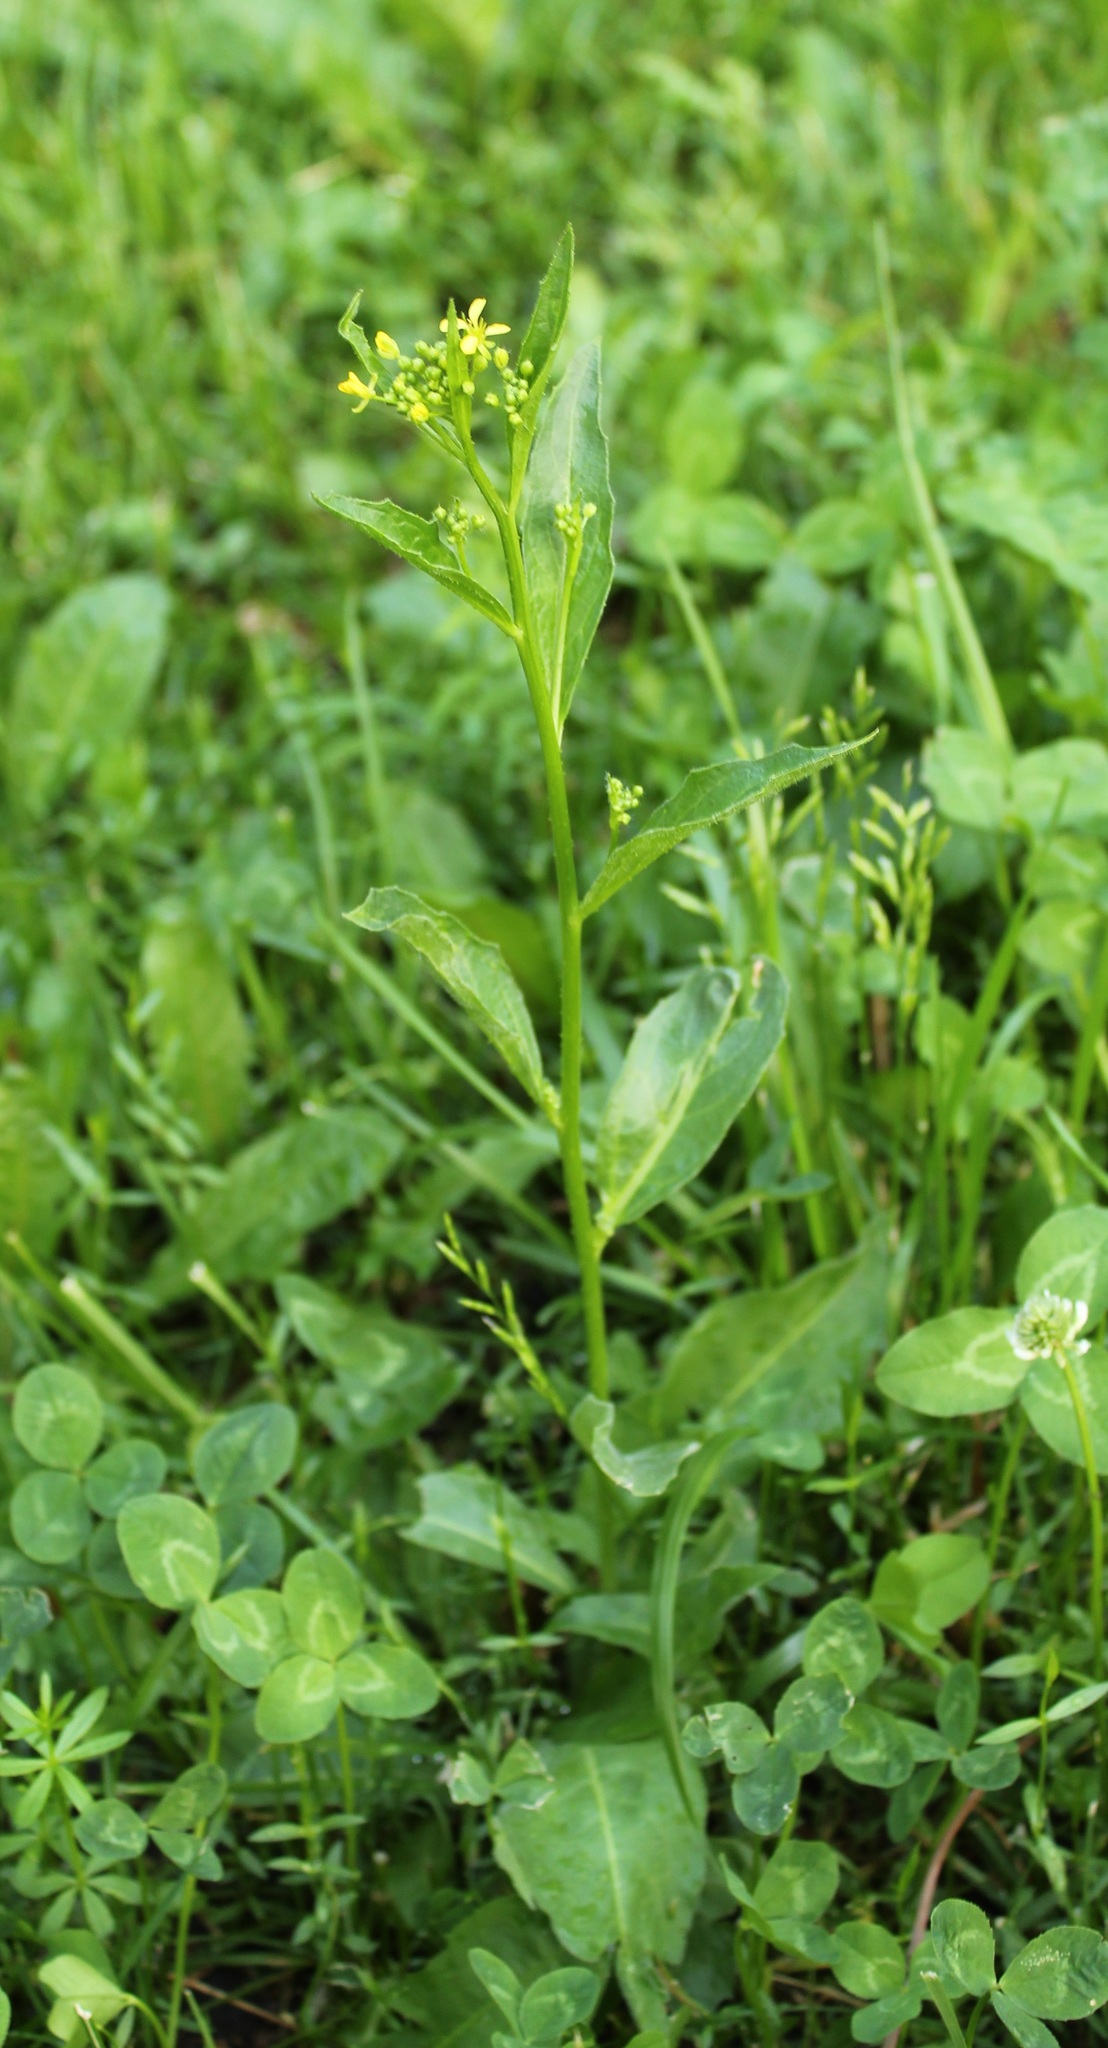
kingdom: Plantae
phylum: Tracheophyta
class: Magnoliopsida
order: Brassicales
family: Brassicaceae
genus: Bunias
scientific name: Bunias orientalis
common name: Warty-cabbage
